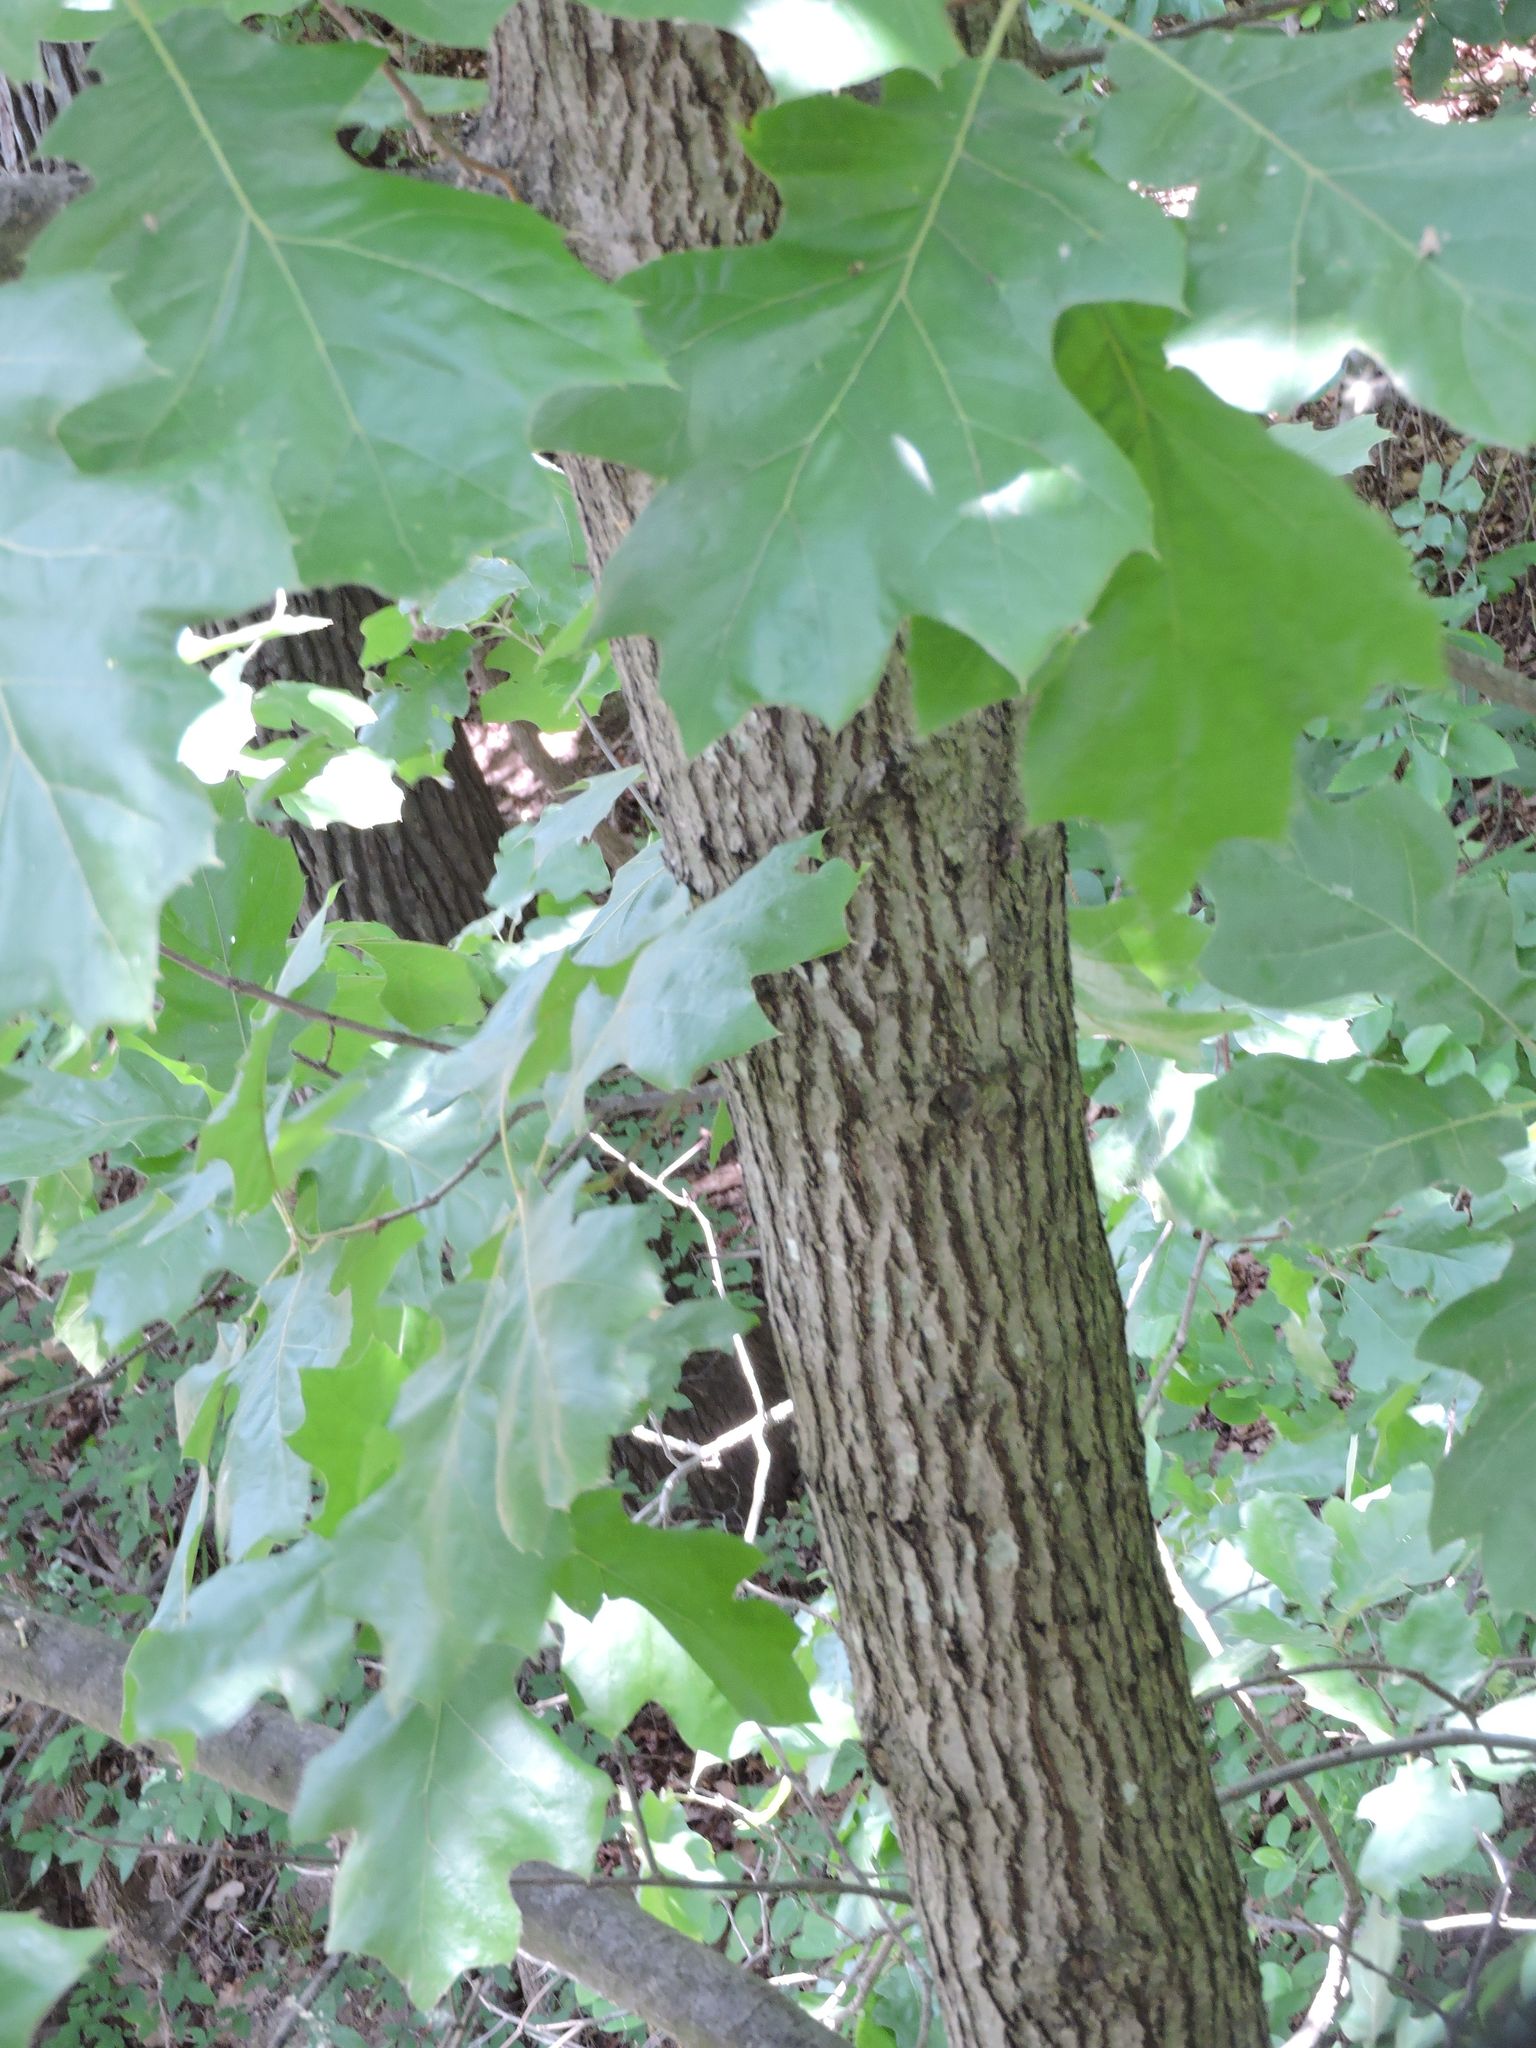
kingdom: Plantae
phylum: Tracheophyta
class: Magnoliopsida
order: Fagales
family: Fagaceae
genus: Quercus
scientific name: Quercus velutina
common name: Black oak
